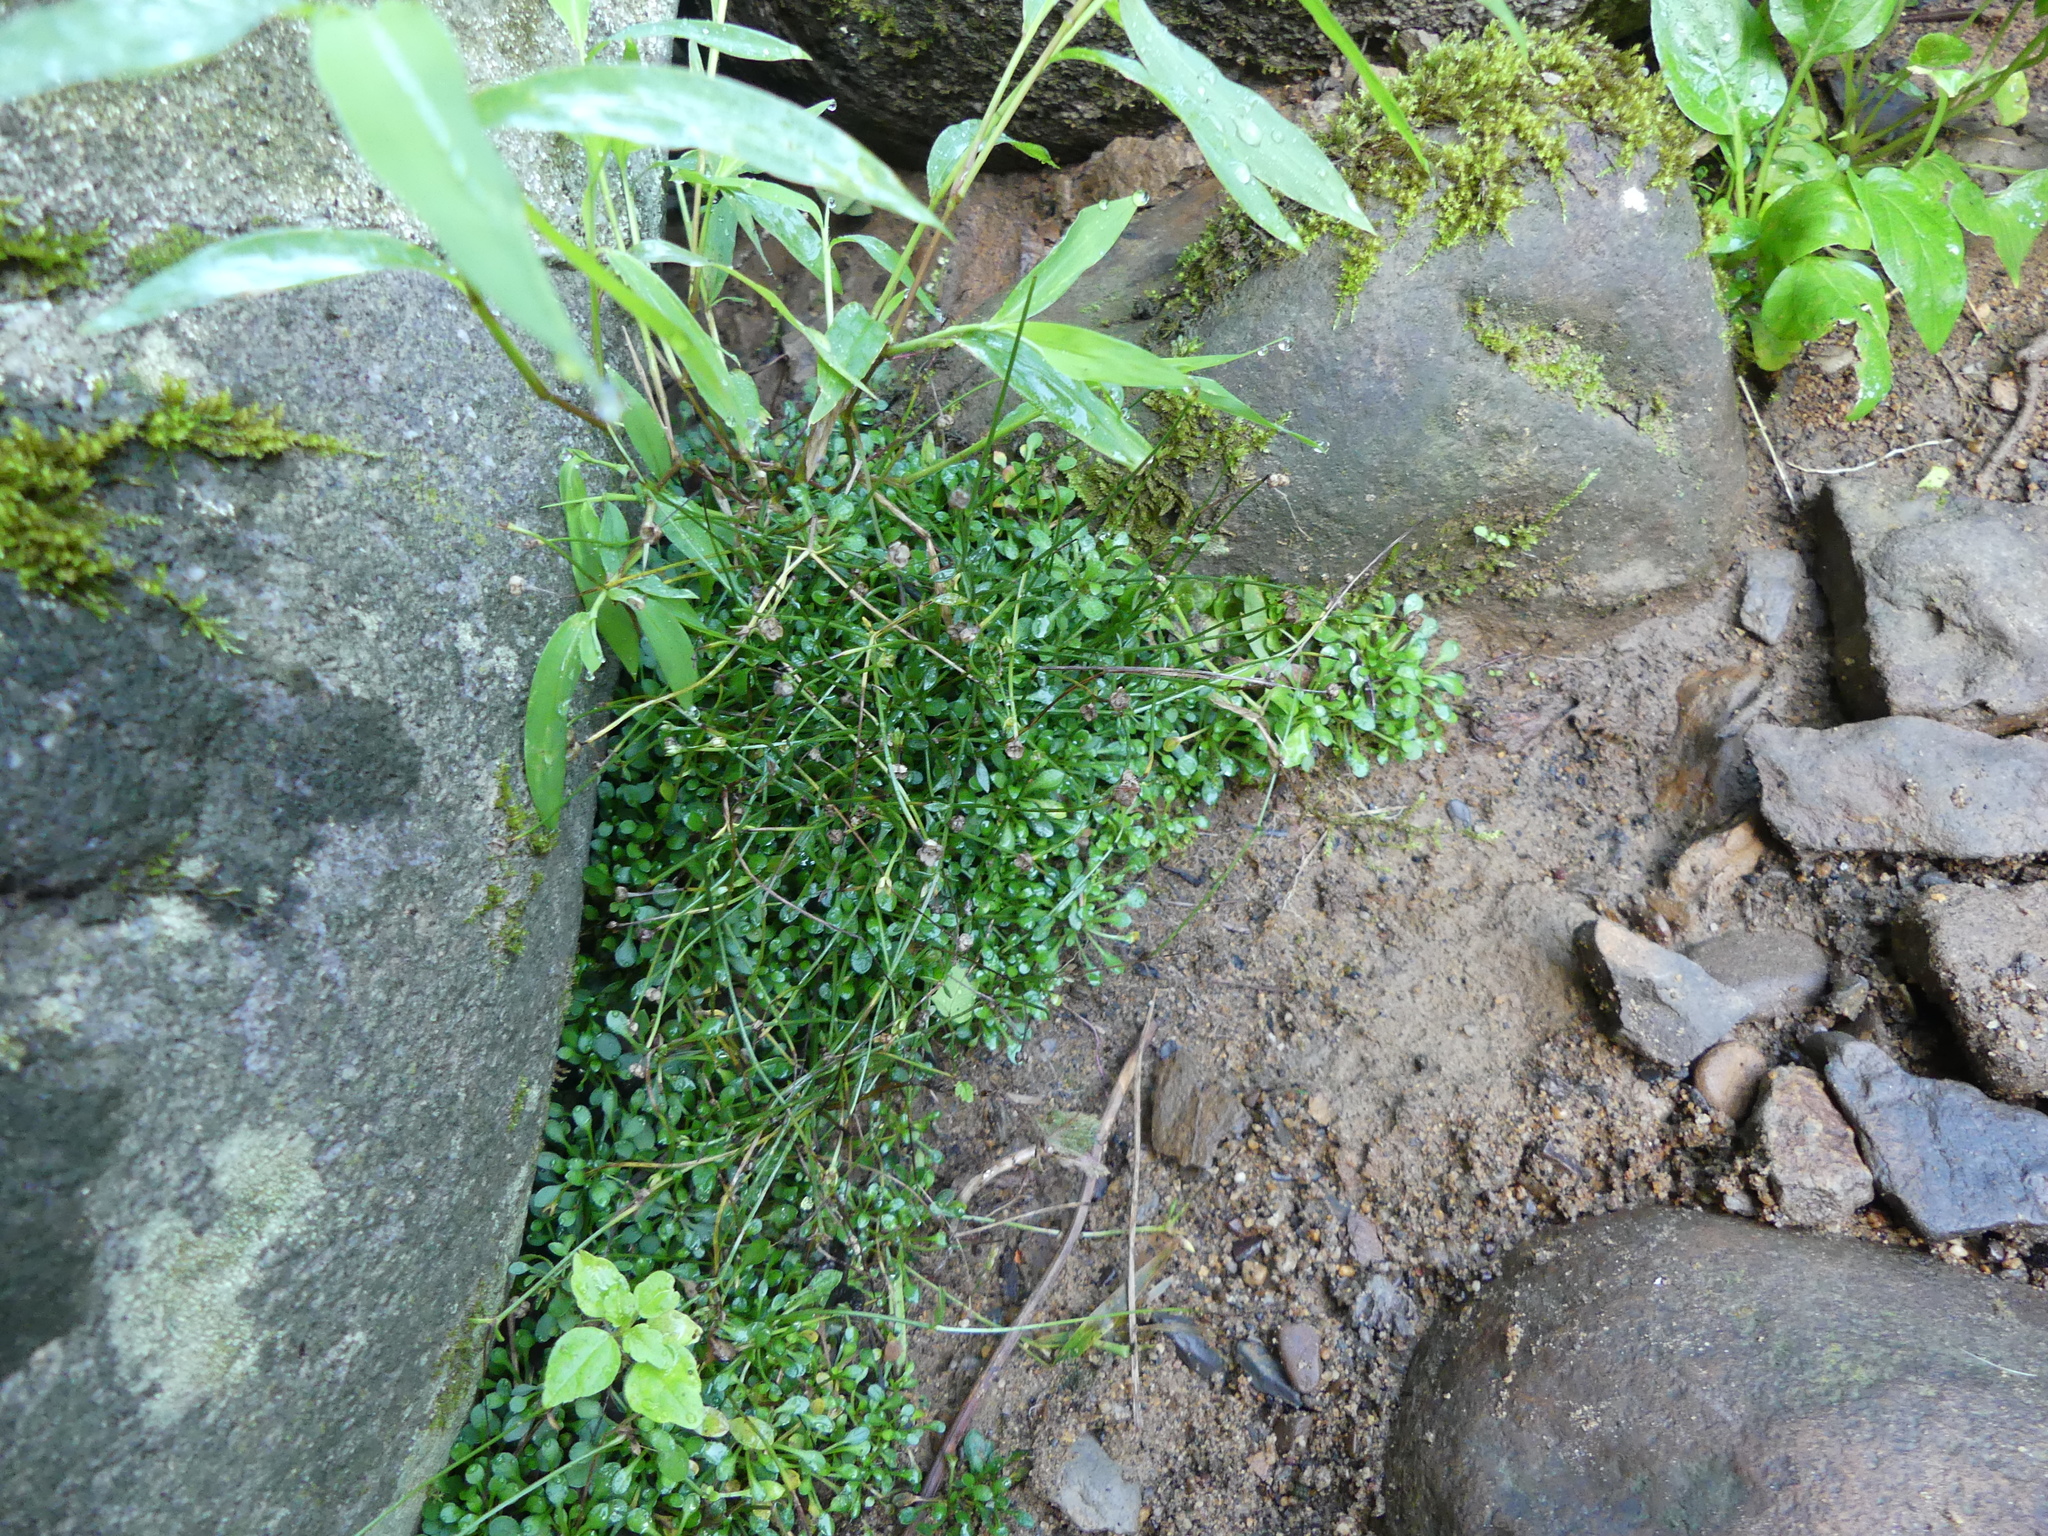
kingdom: Plantae
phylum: Tracheophyta
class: Magnoliopsida
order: Gentianales
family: Rubiaceae
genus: Houstonia
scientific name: Houstonia caerulea
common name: Bluets
